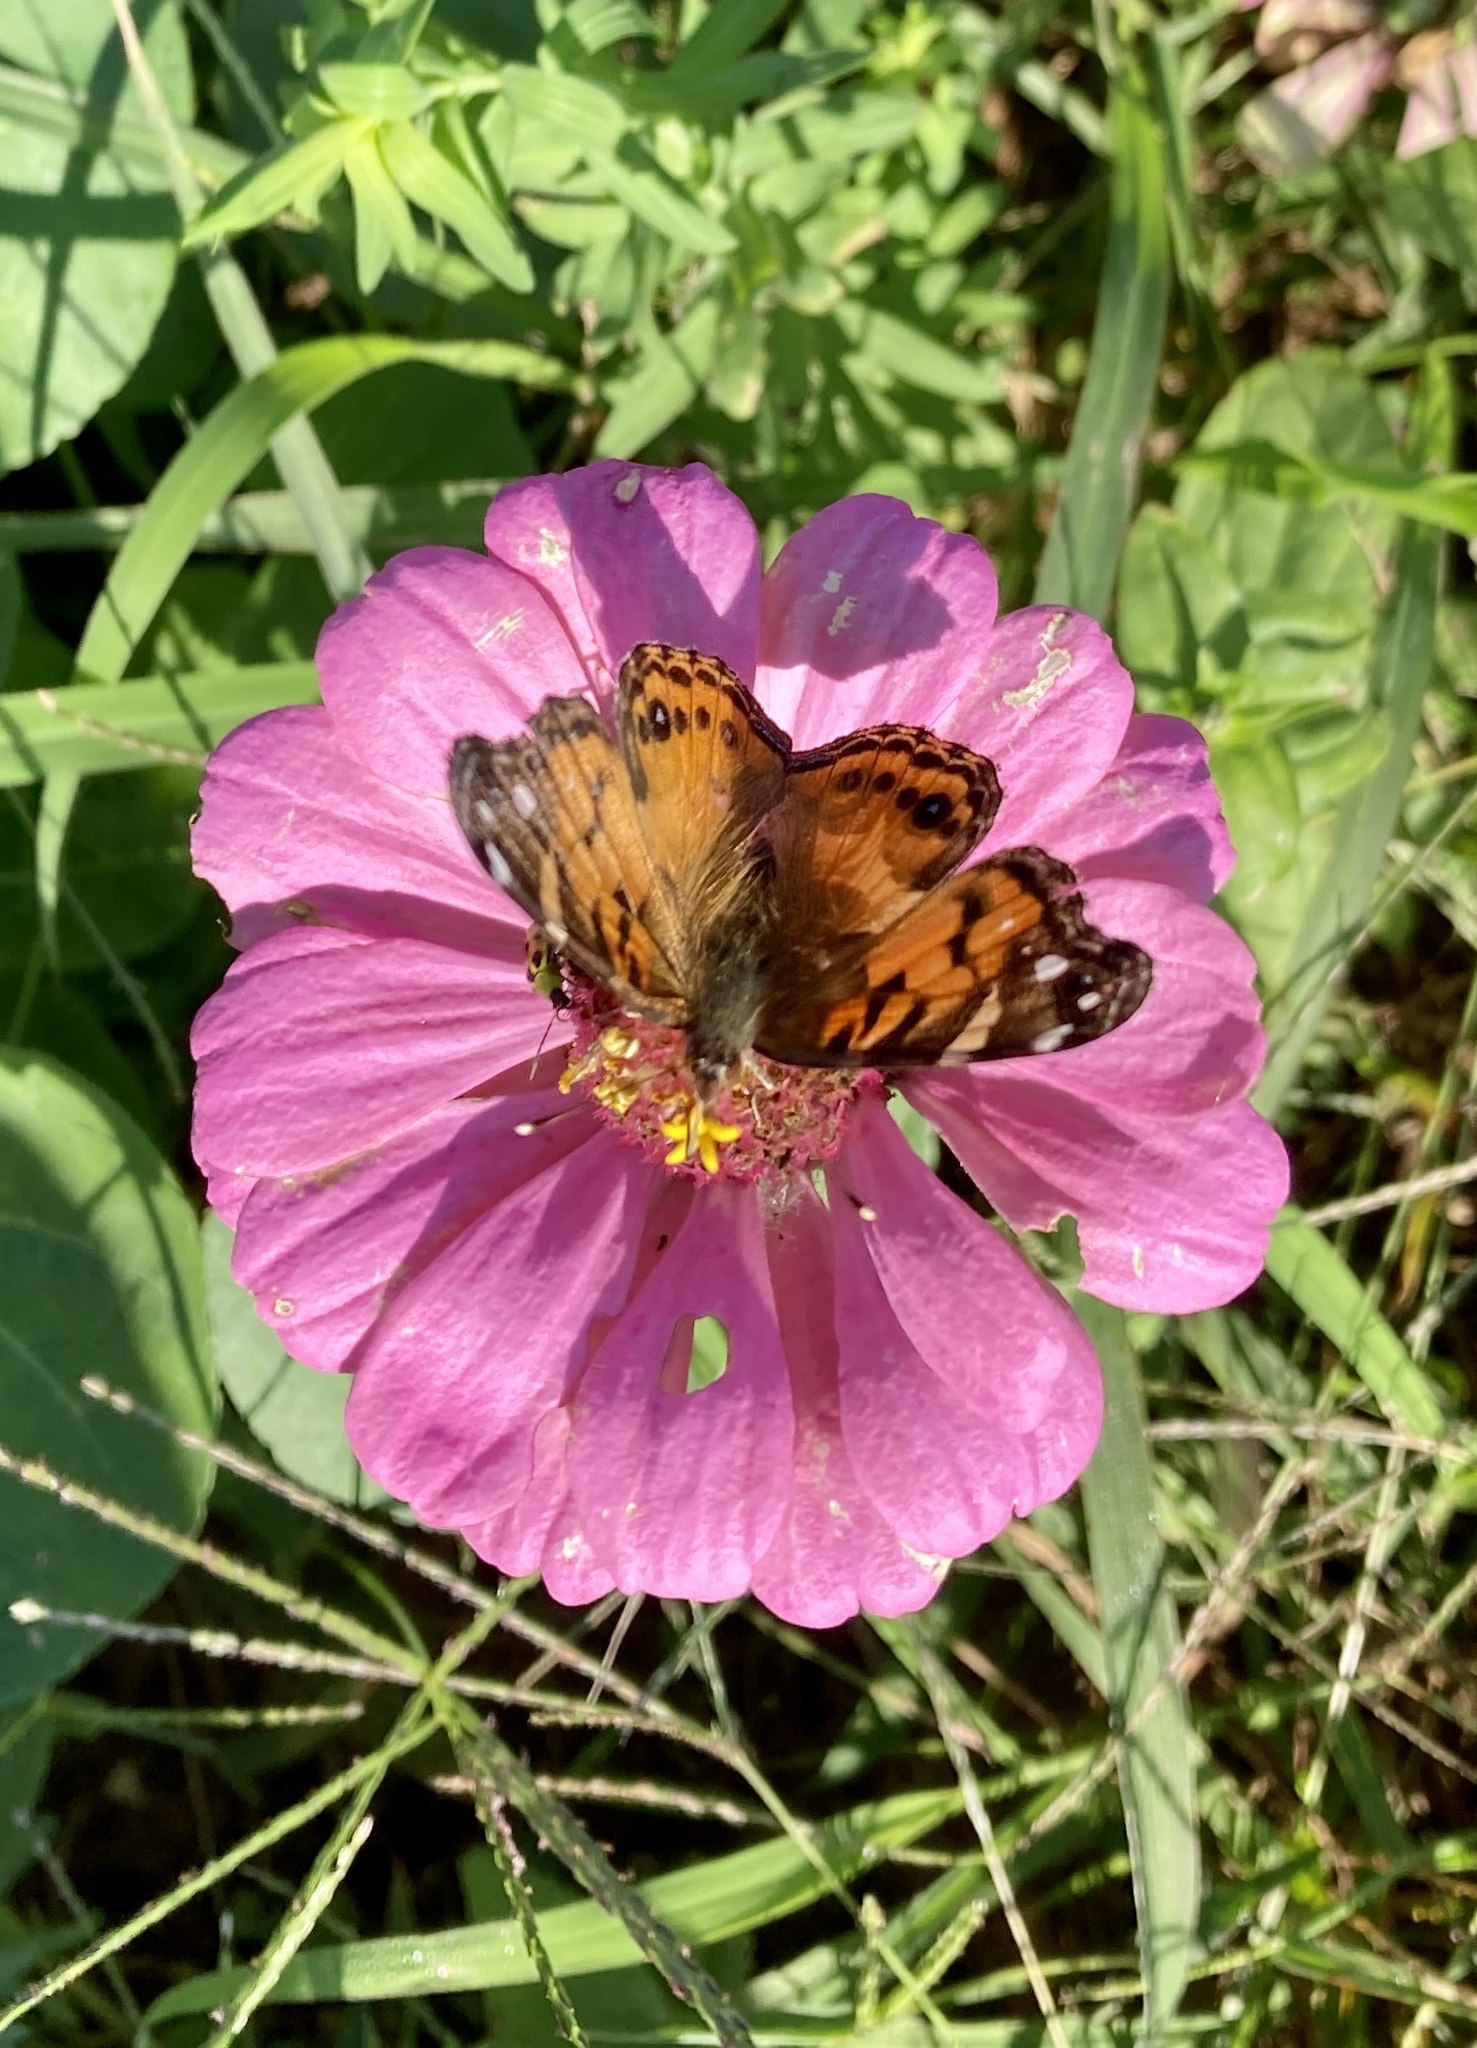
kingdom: Animalia
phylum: Arthropoda
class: Insecta
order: Lepidoptera
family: Nymphalidae
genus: Vanessa
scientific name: Vanessa virginiensis
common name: American lady
